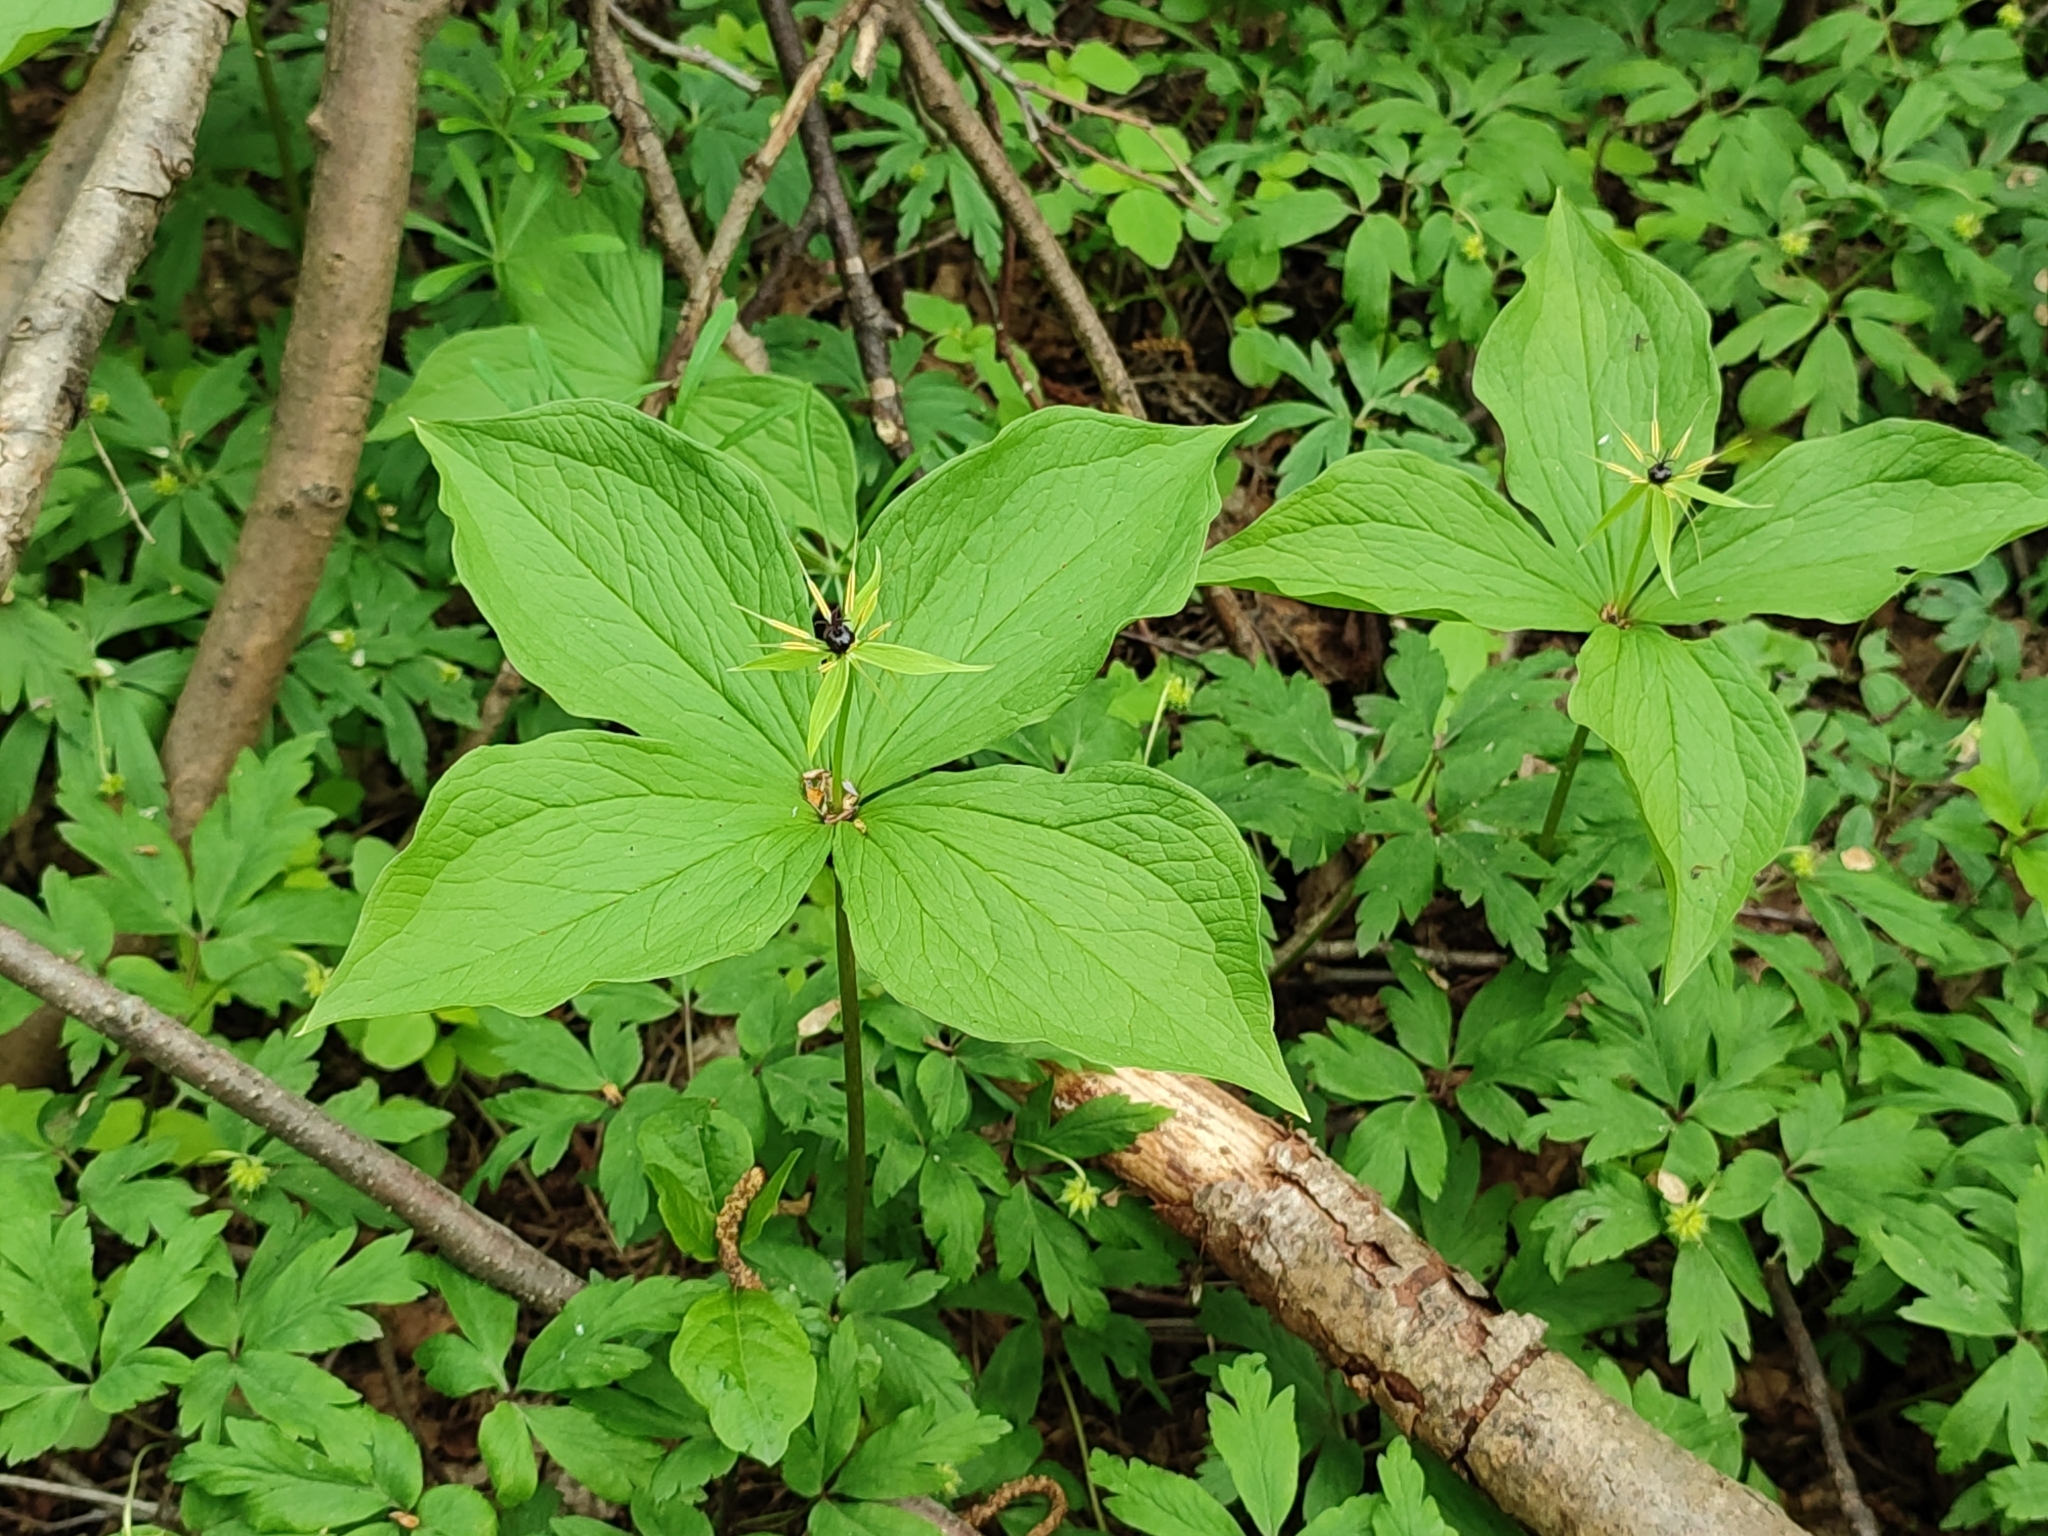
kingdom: Plantae
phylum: Tracheophyta
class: Liliopsida
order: Liliales
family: Melanthiaceae
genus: Paris
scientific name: Paris quadrifolia
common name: Herb-paris
